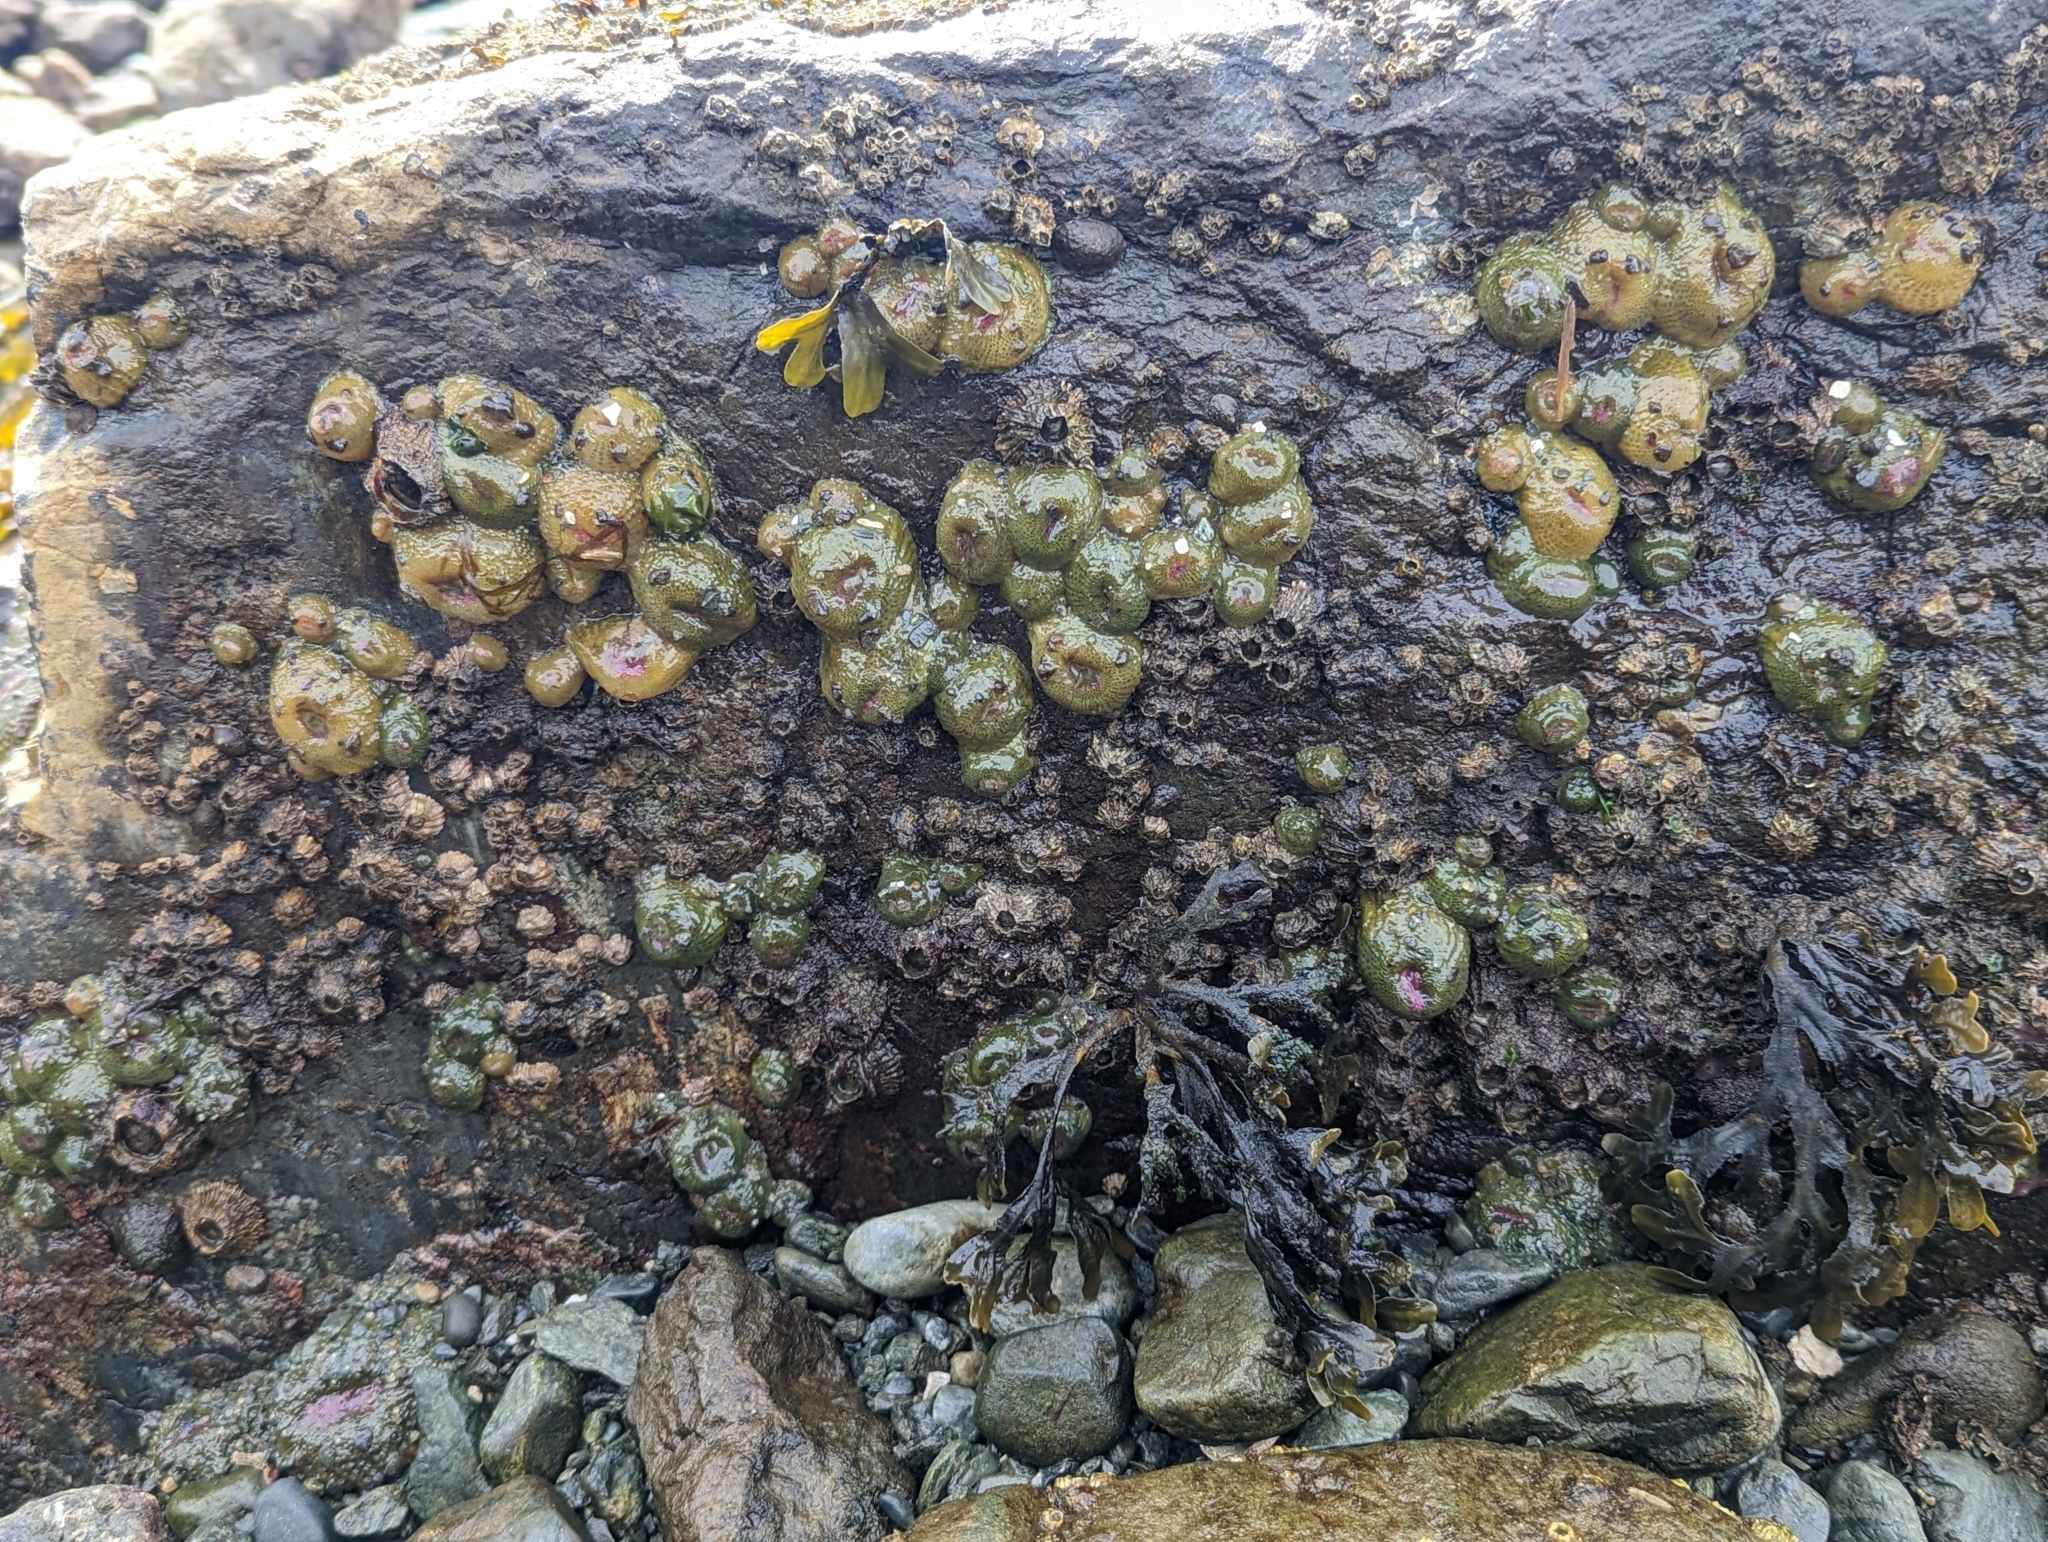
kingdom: Animalia
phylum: Cnidaria
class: Anthozoa
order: Actiniaria
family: Actiniidae
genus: Anthopleura
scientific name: Anthopleura elegantissima
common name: Clonal anemone
